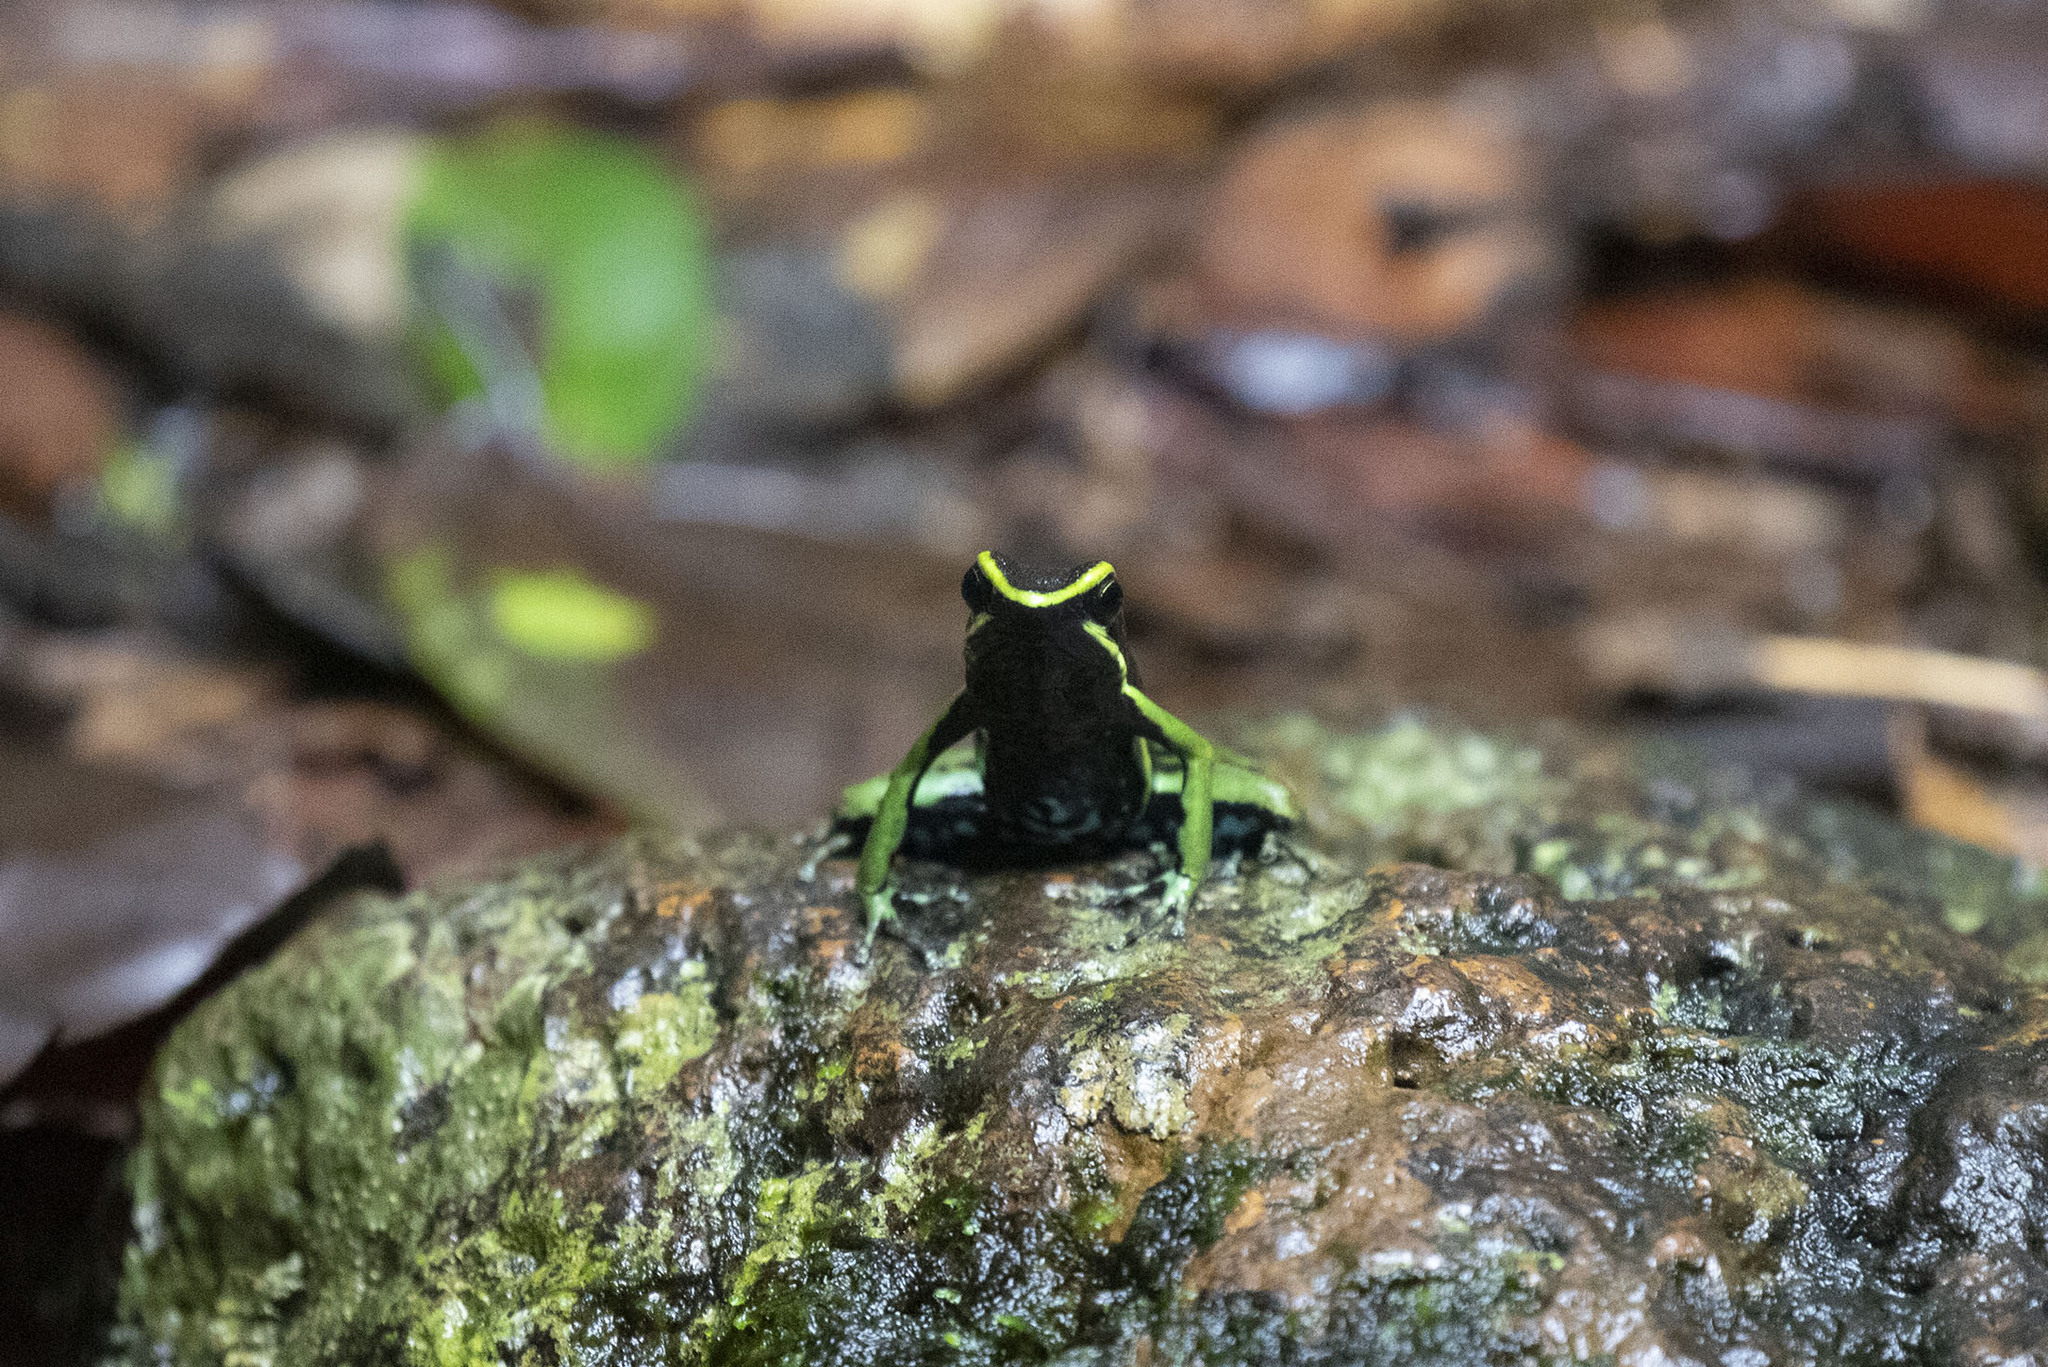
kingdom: Animalia
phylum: Chordata
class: Amphibia
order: Anura
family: Dendrobatidae
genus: Ameerega
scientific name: Ameerega trivittata
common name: Three-striped arrow-poison frog
